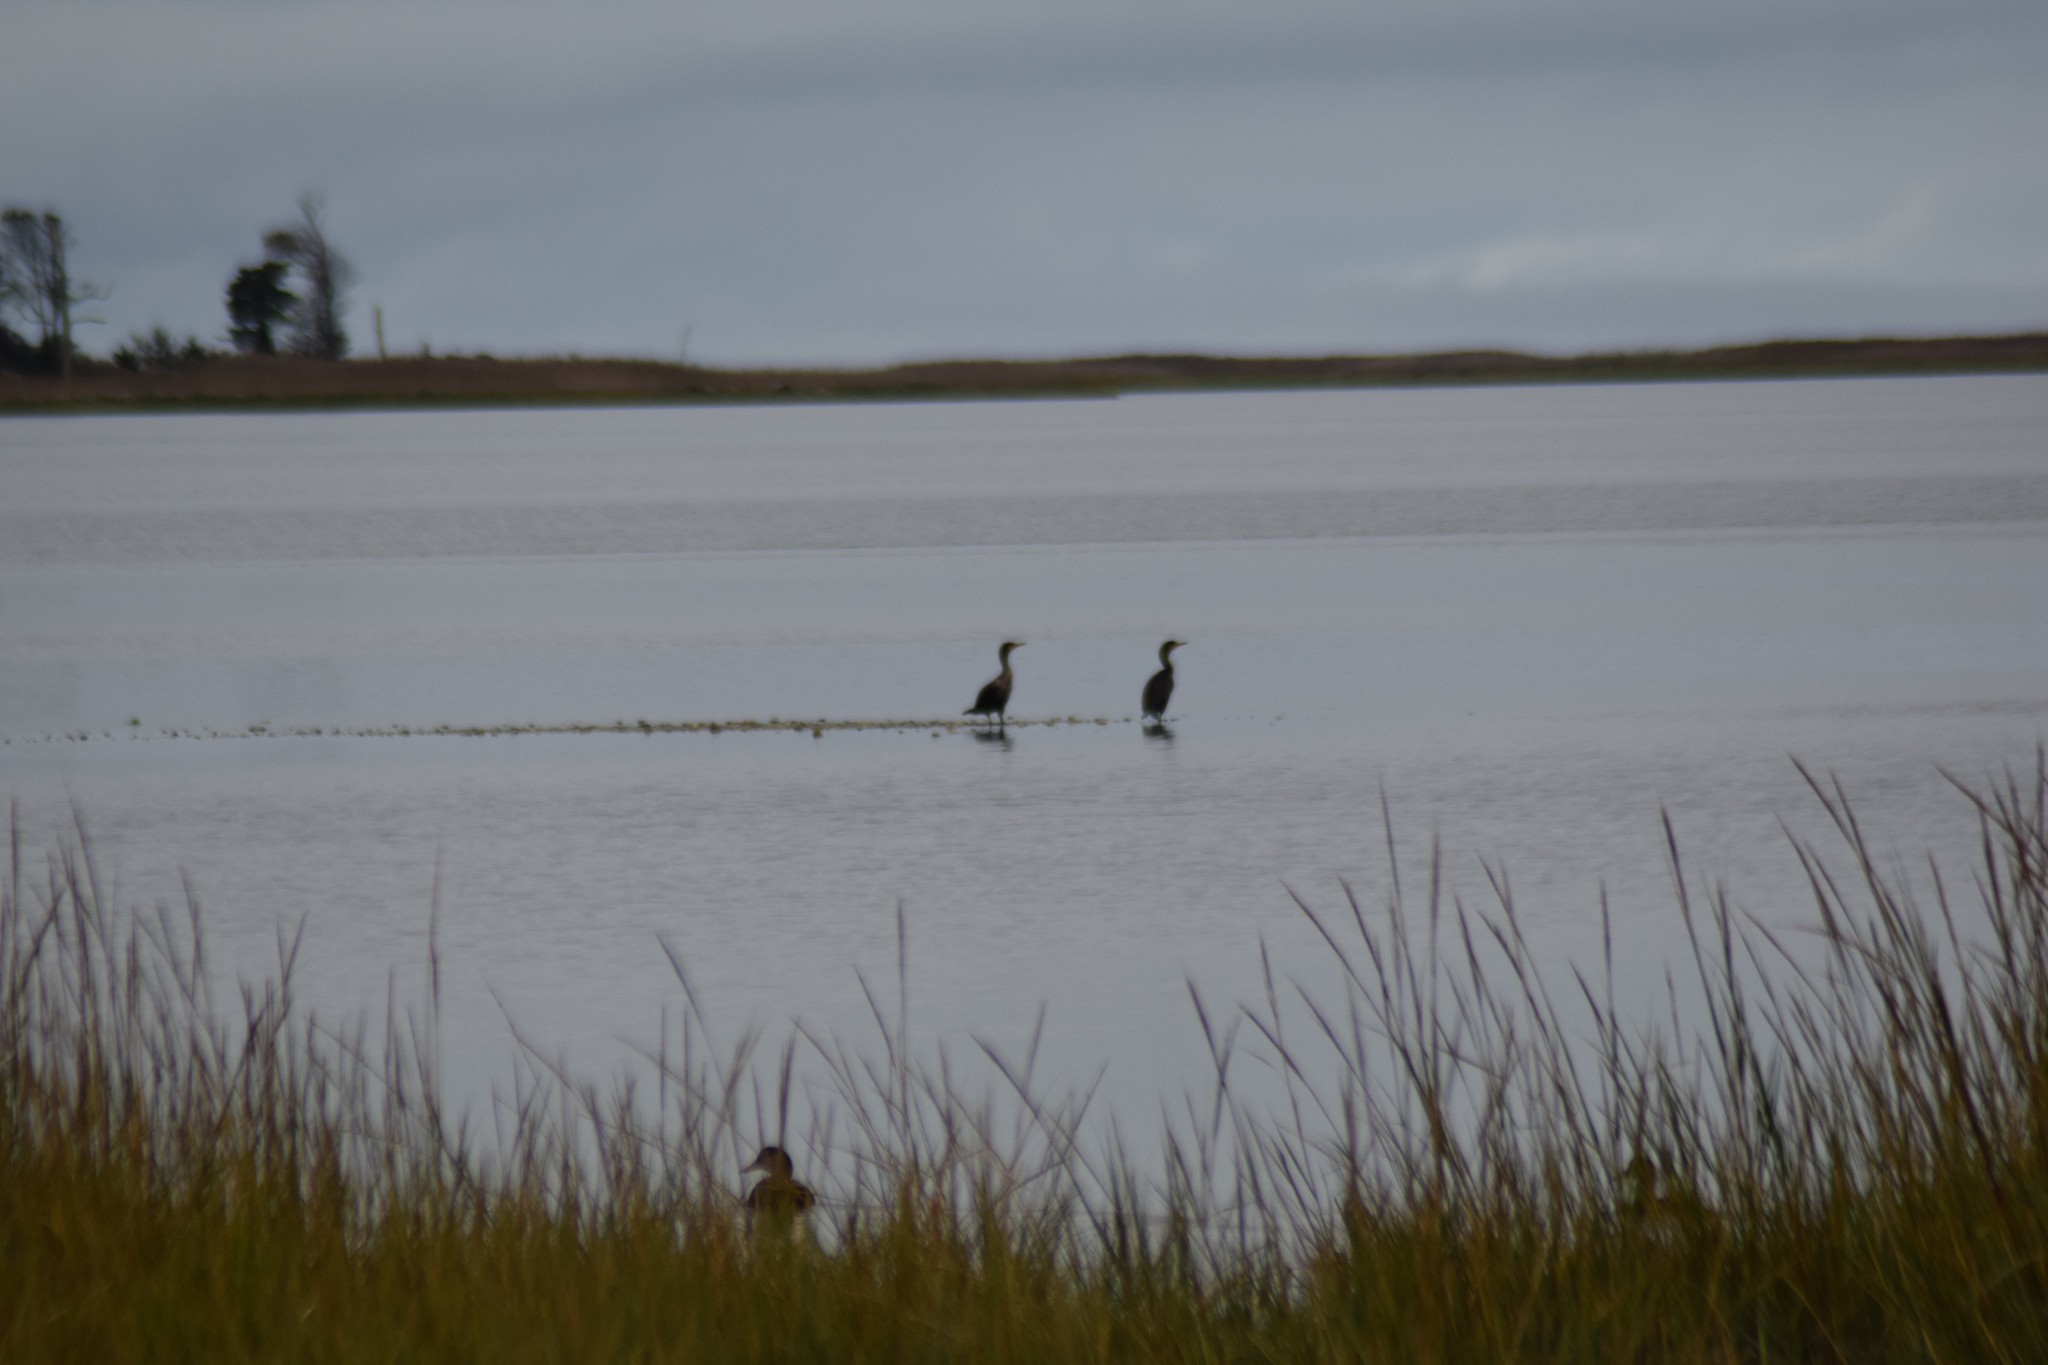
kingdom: Animalia
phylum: Chordata
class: Aves
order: Suliformes
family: Phalacrocoracidae
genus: Phalacrocorax
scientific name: Phalacrocorax auritus
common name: Double-crested cormorant
